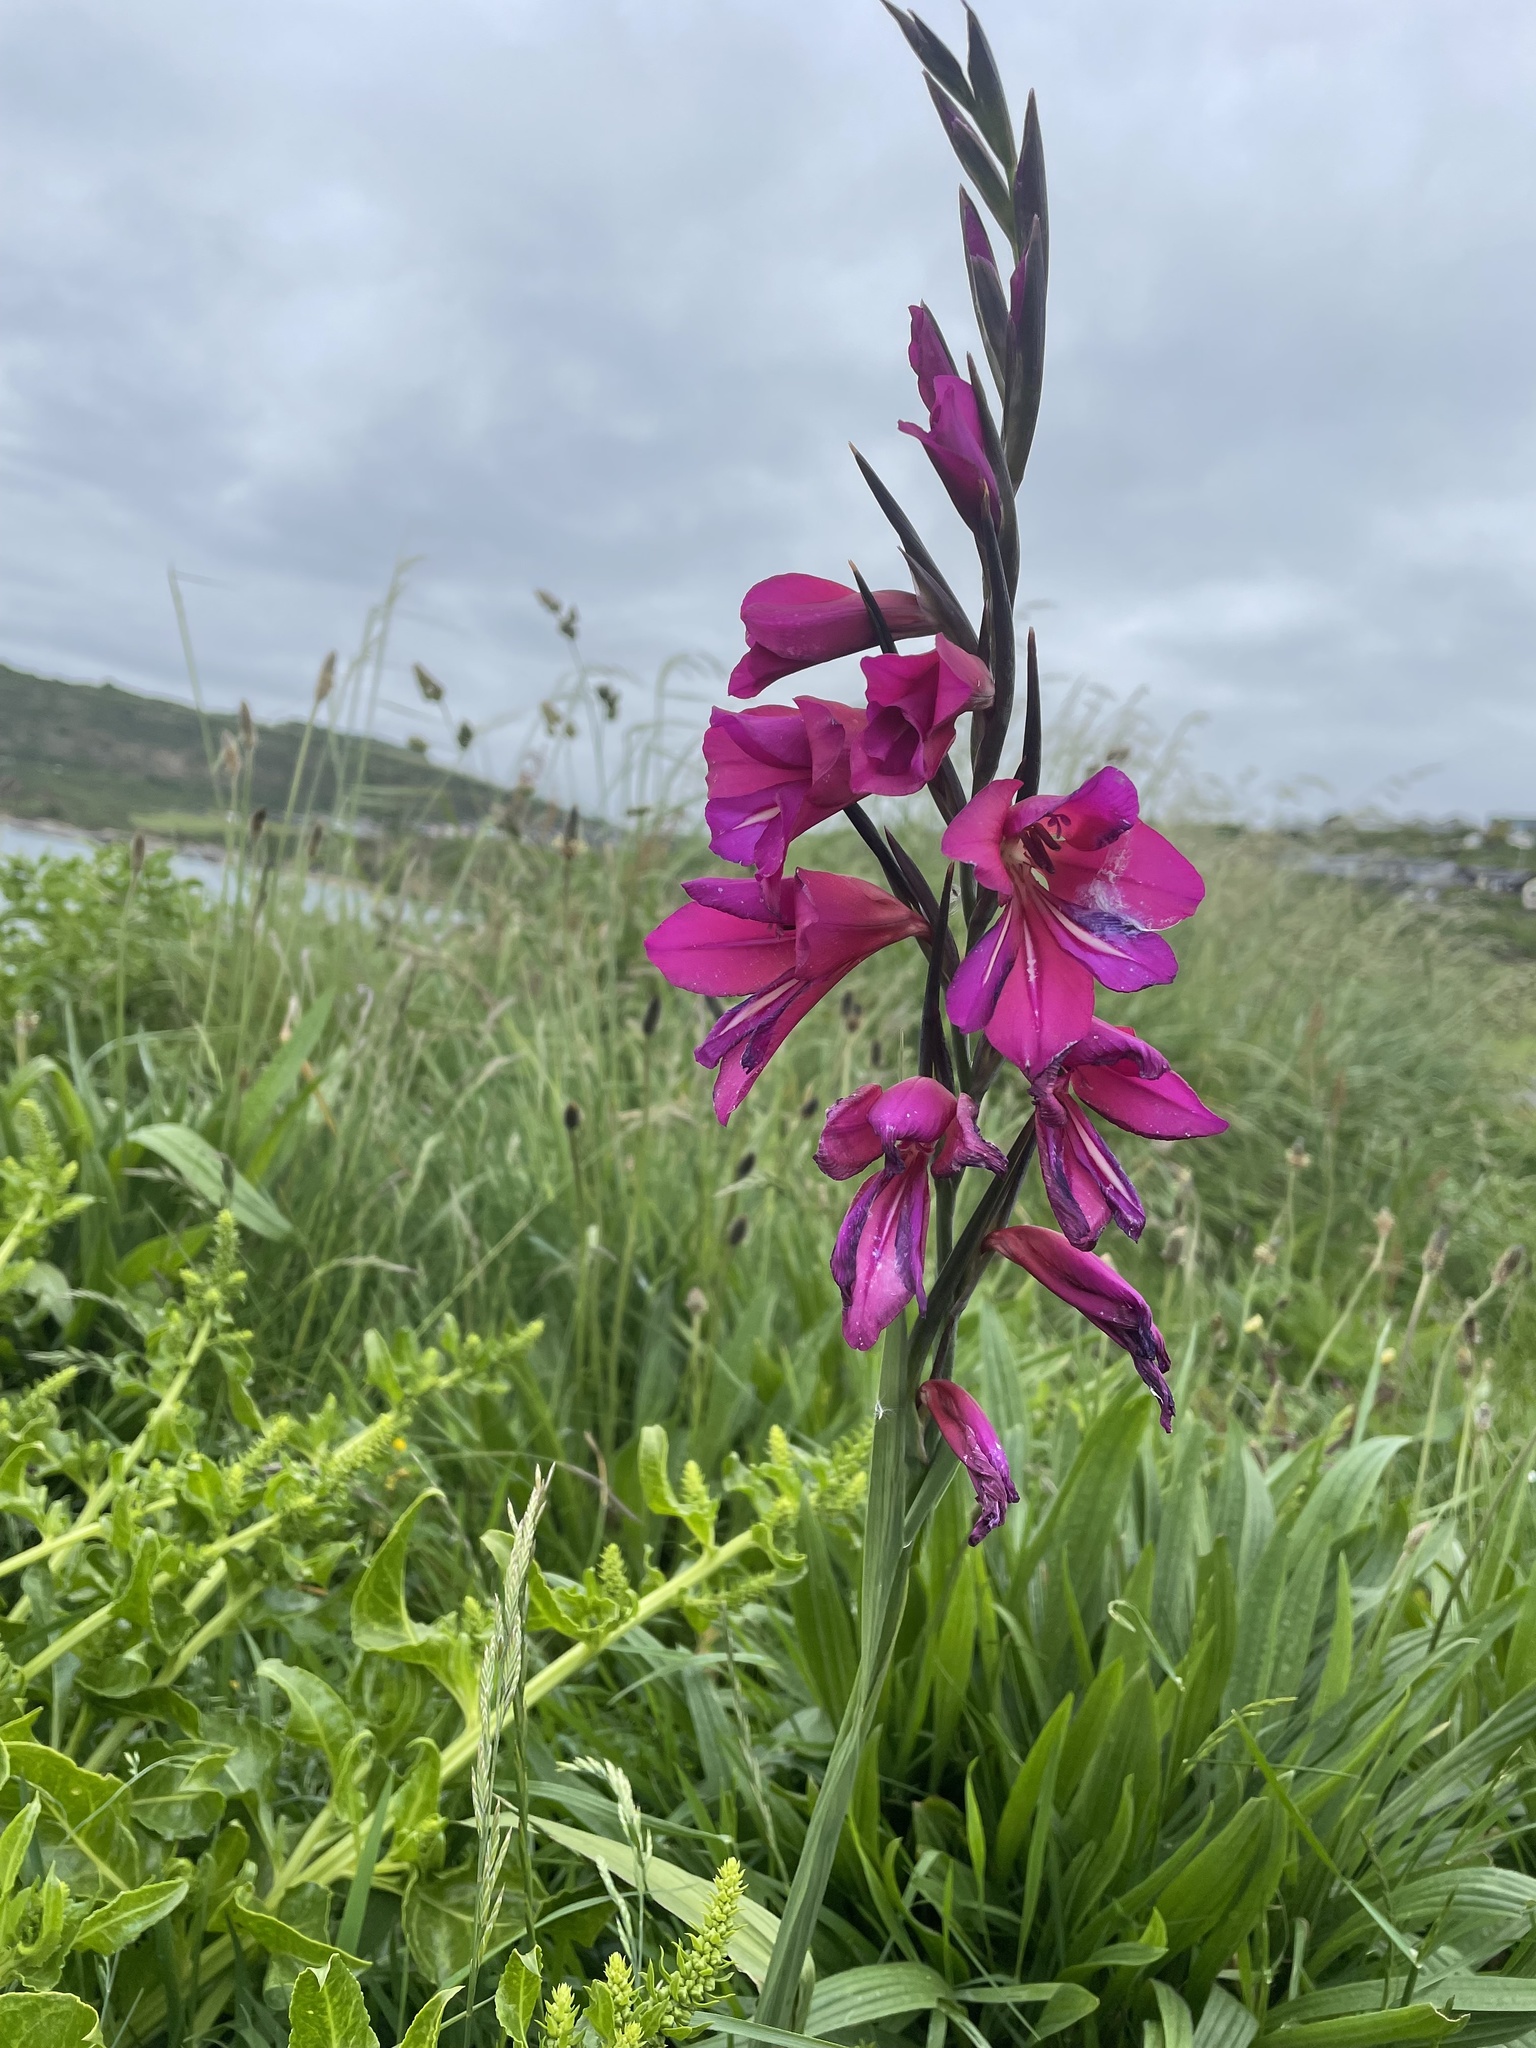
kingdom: Plantae
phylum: Tracheophyta
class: Liliopsida
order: Asparagales
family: Iridaceae
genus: Gladiolus
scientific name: Gladiolus communis
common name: Eastern gladiolus
